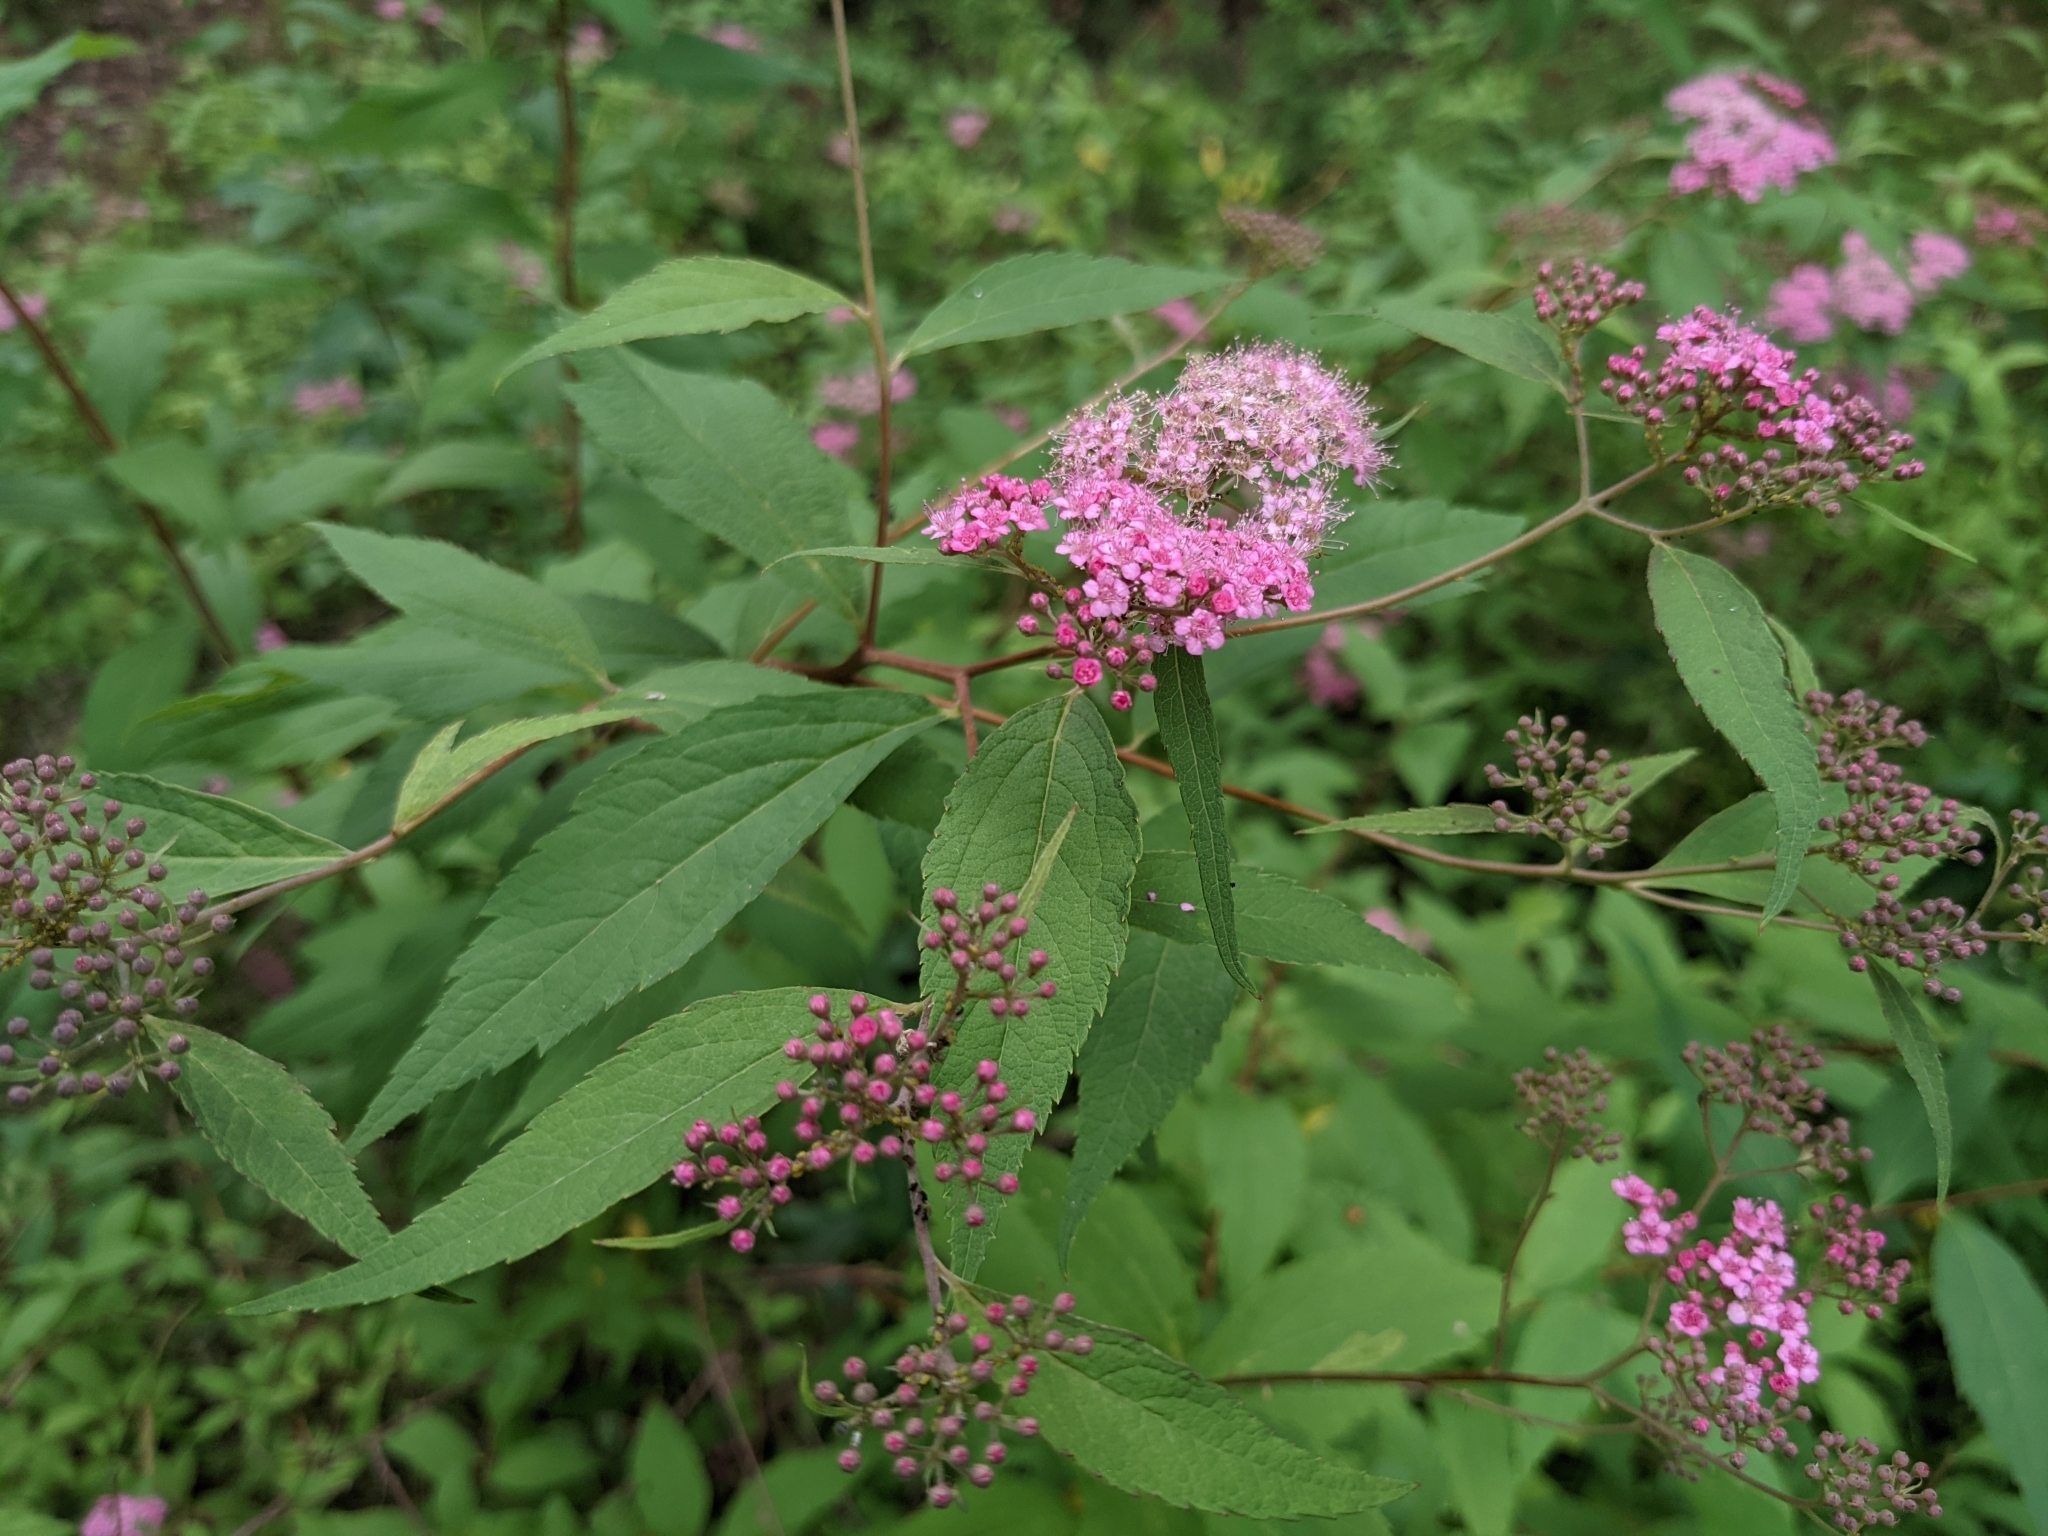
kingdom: Plantae
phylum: Tracheophyta
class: Magnoliopsida
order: Rosales
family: Rosaceae
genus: Spiraea
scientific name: Spiraea japonica
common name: Japanese spiraea
